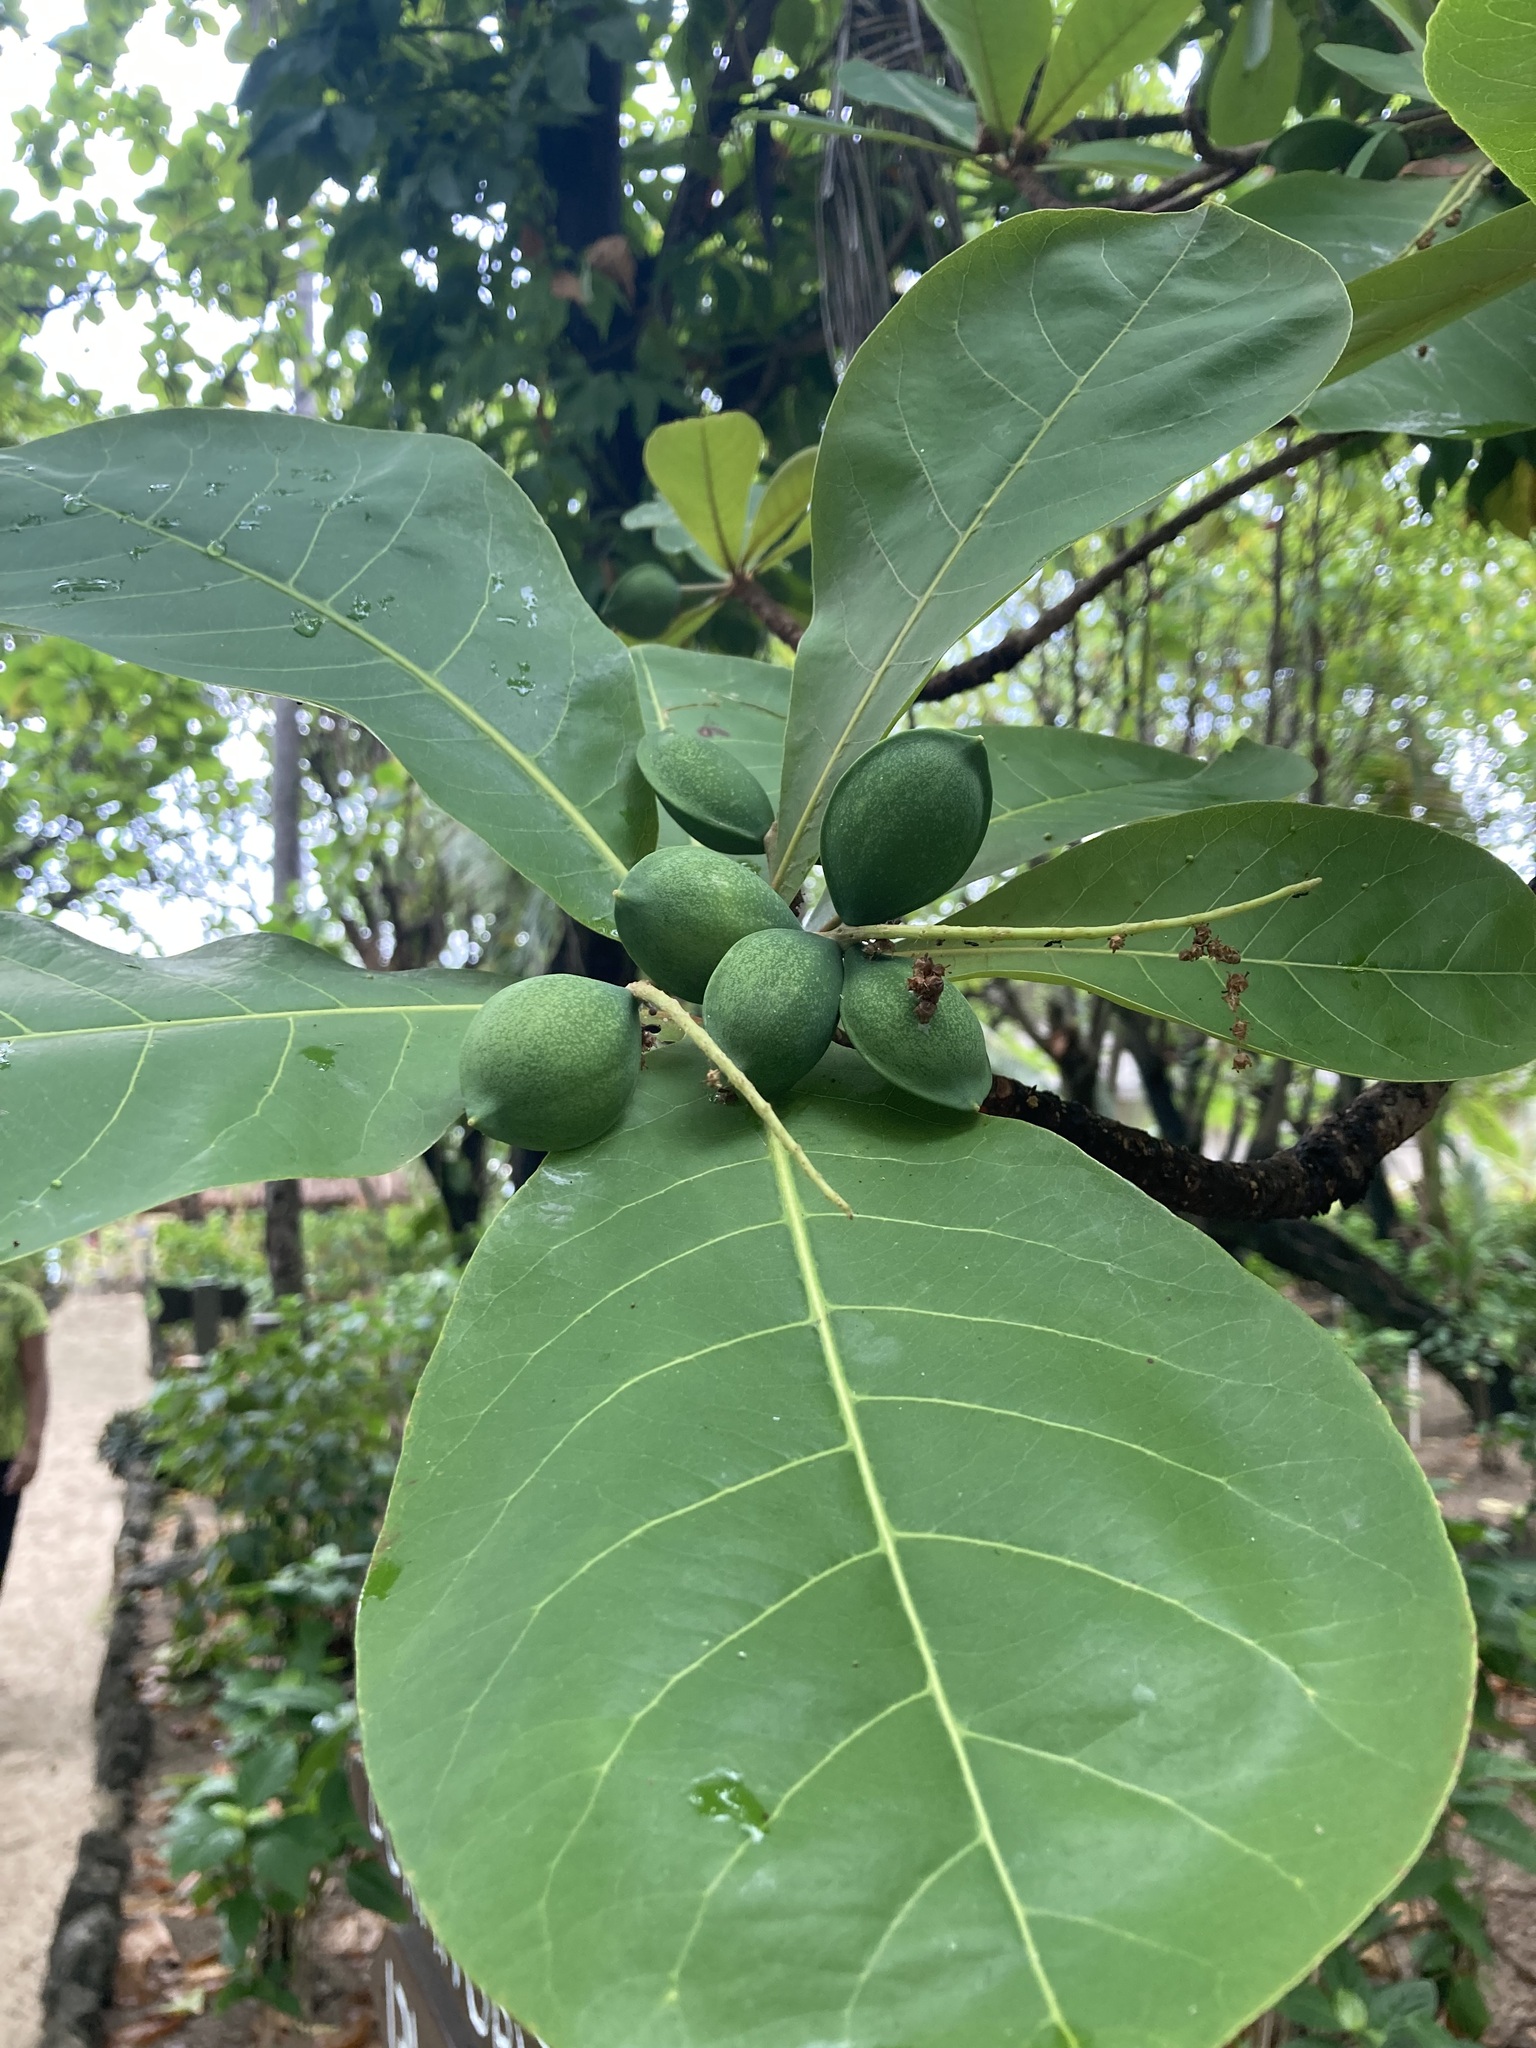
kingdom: Plantae
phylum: Tracheophyta
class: Magnoliopsida
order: Myrtales
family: Combretaceae
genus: Terminalia
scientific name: Terminalia catappa
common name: Tropical almond
